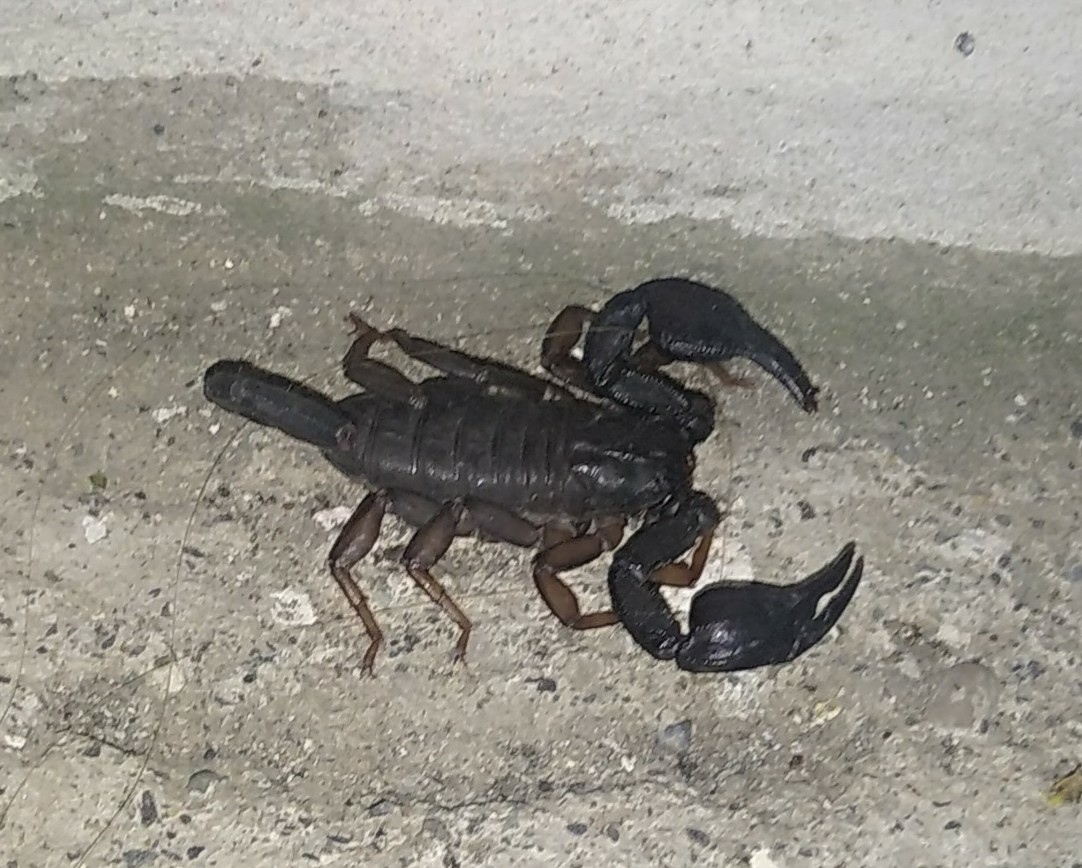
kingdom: Animalia
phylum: Arthropoda
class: Arachnida
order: Scorpiones
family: Euscorpiidae
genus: Euscorpius
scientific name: Euscorpius italicus
